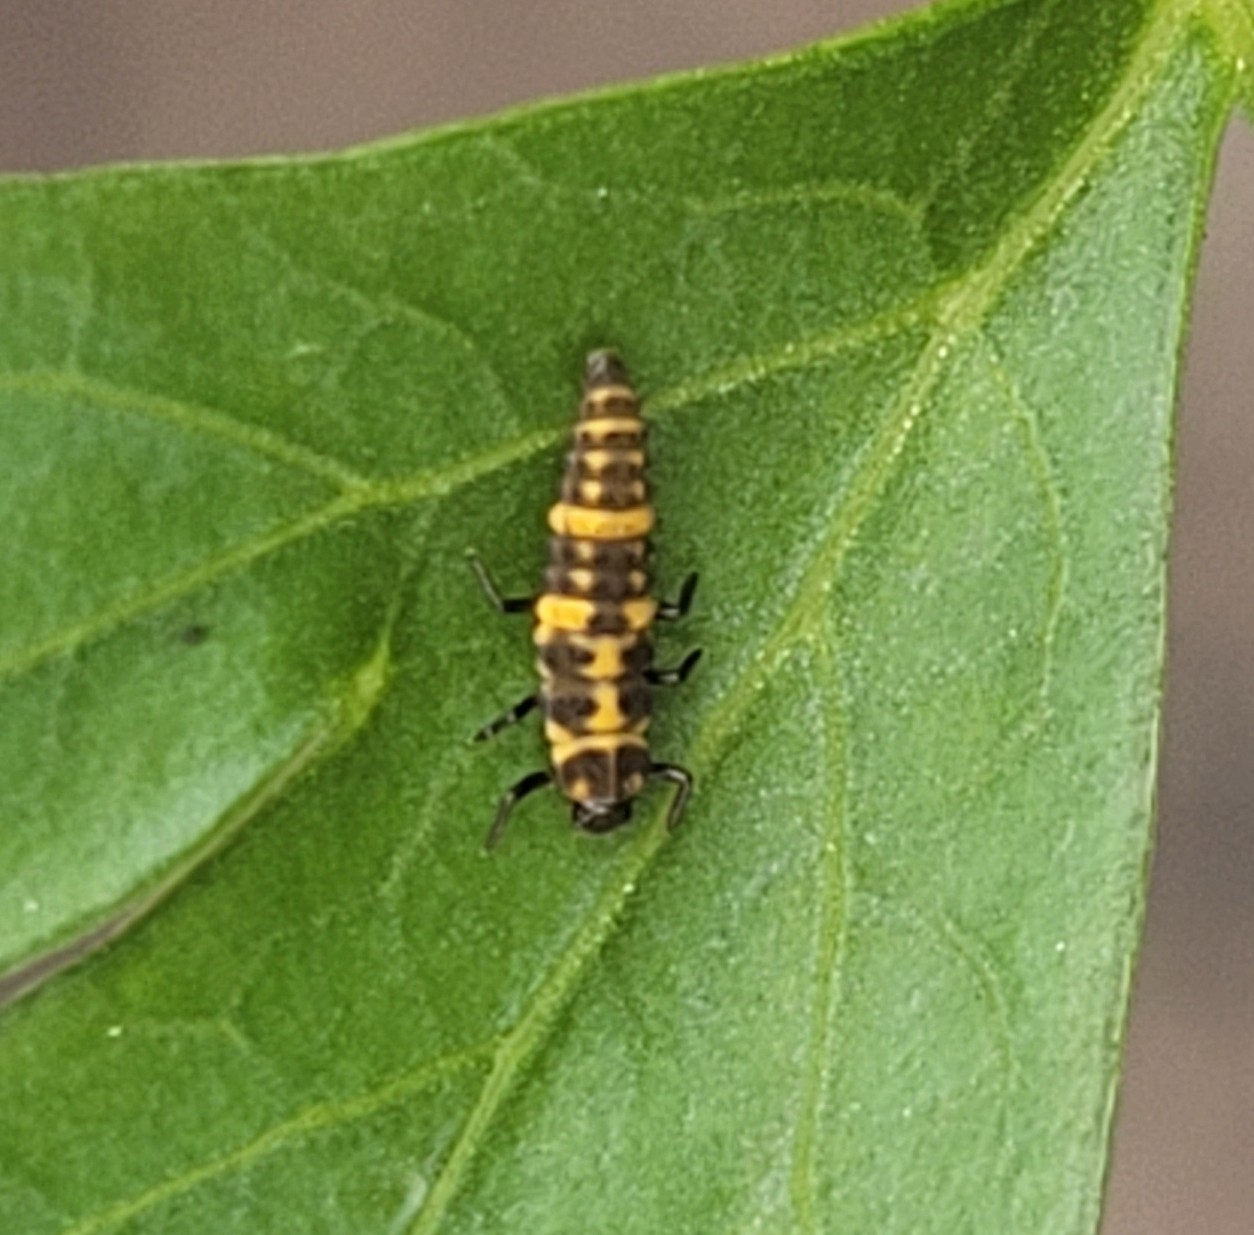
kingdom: Animalia
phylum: Arthropoda
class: Insecta
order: Coleoptera
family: Coccinellidae
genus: Coleomegilla
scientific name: Coleomegilla maculata
